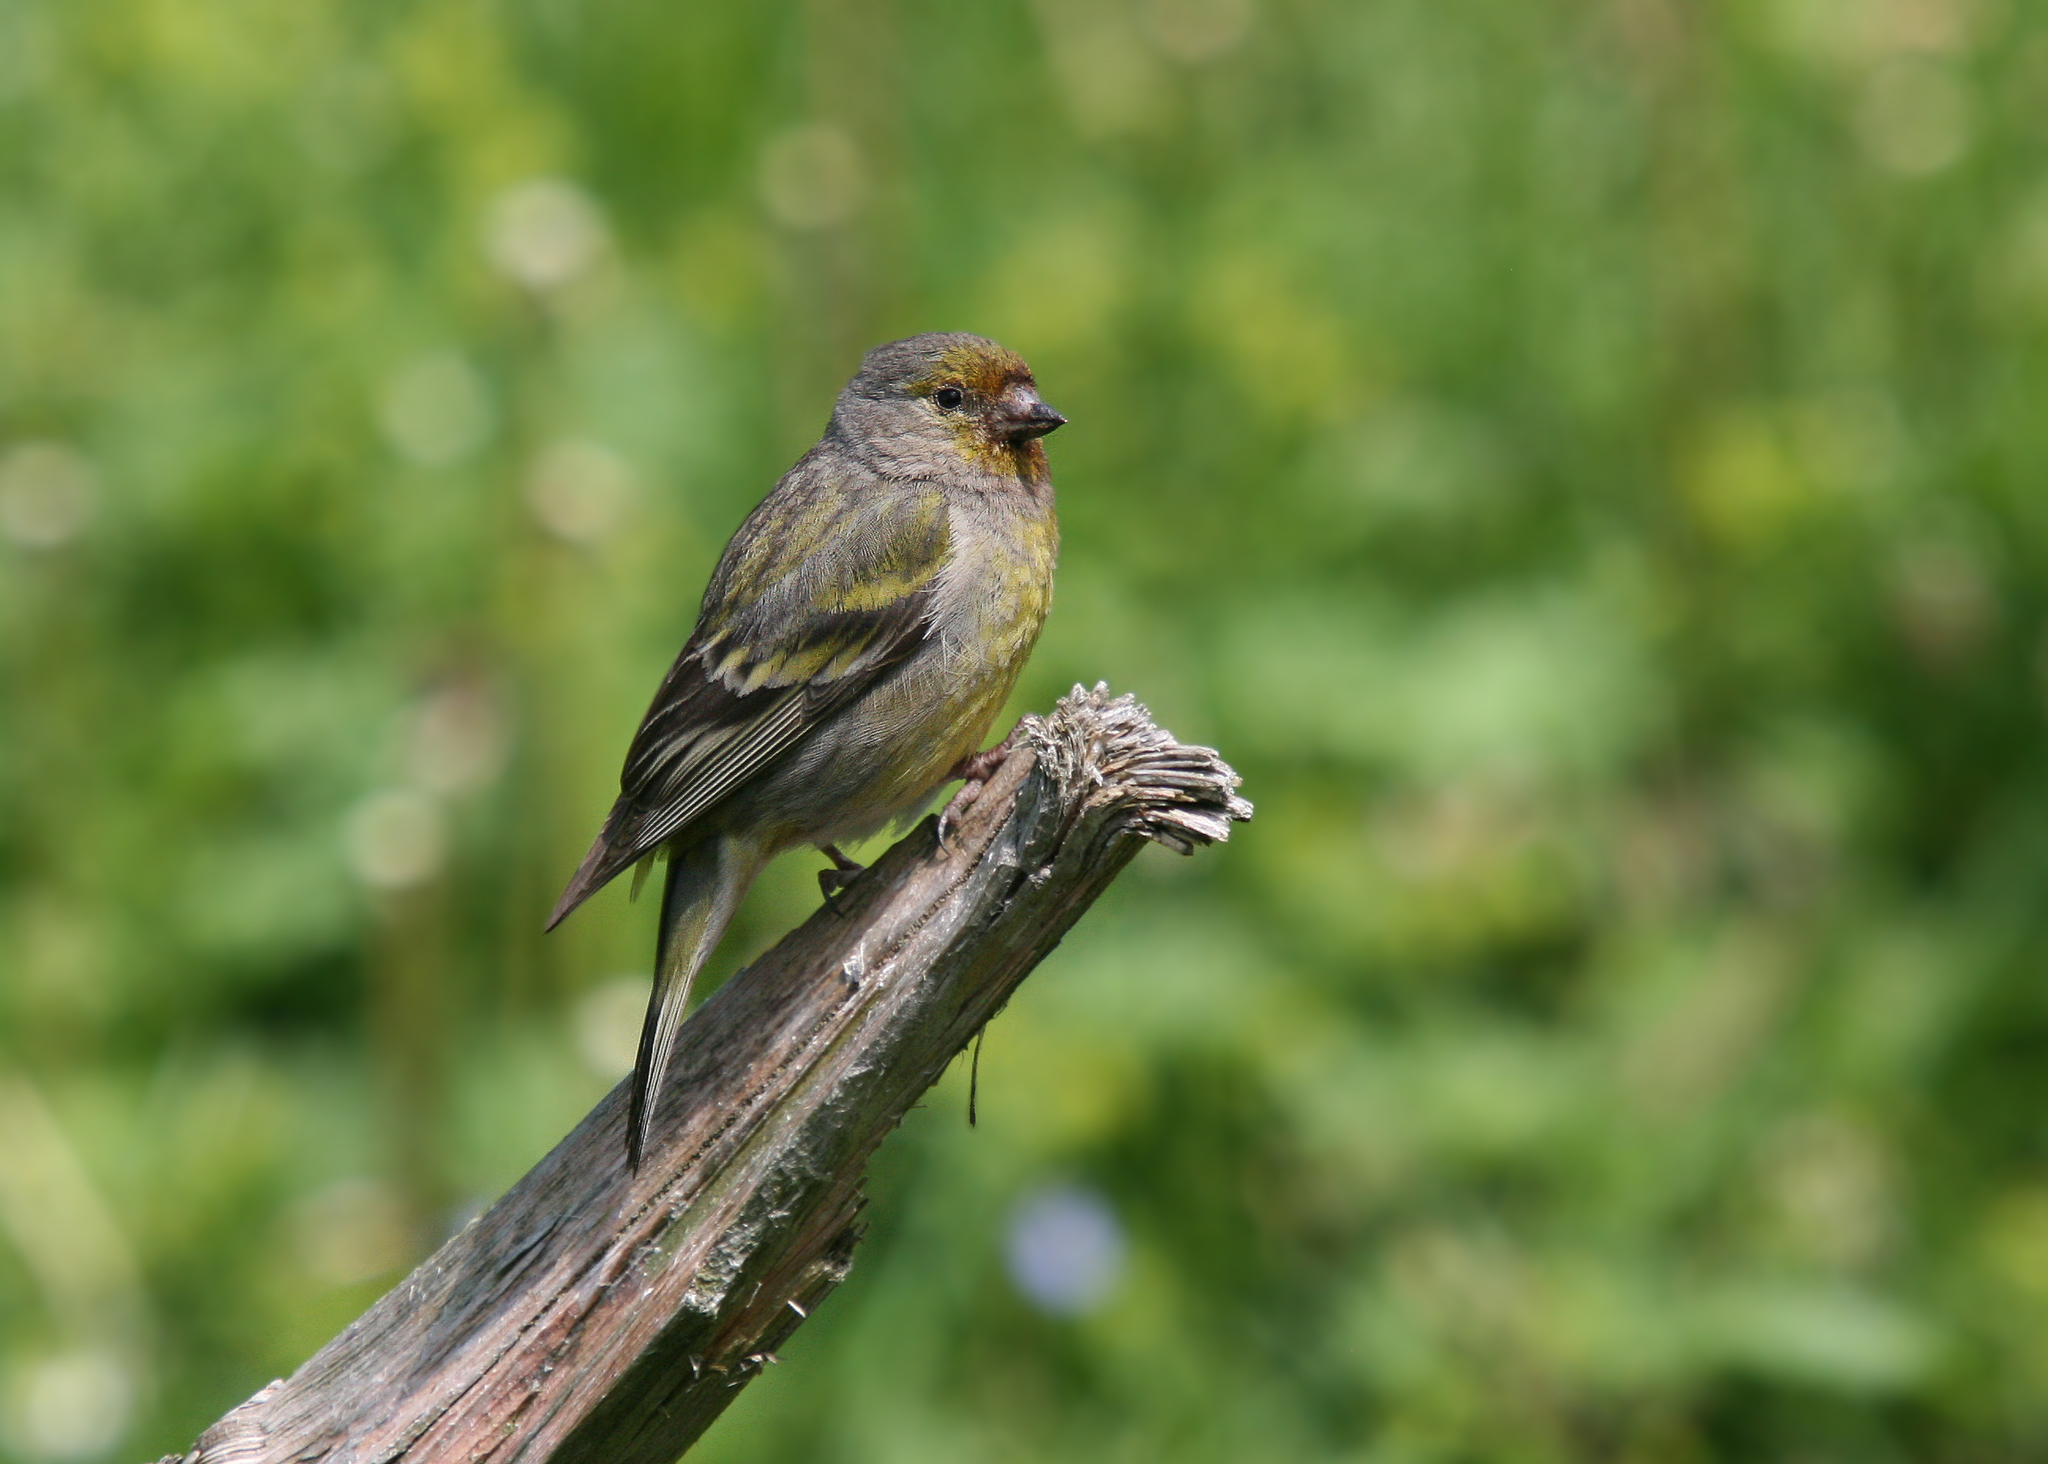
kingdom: Animalia
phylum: Chordata
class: Aves
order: Passeriformes
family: Fringillidae
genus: Carduelis
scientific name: Carduelis citrinella
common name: Citril finch
